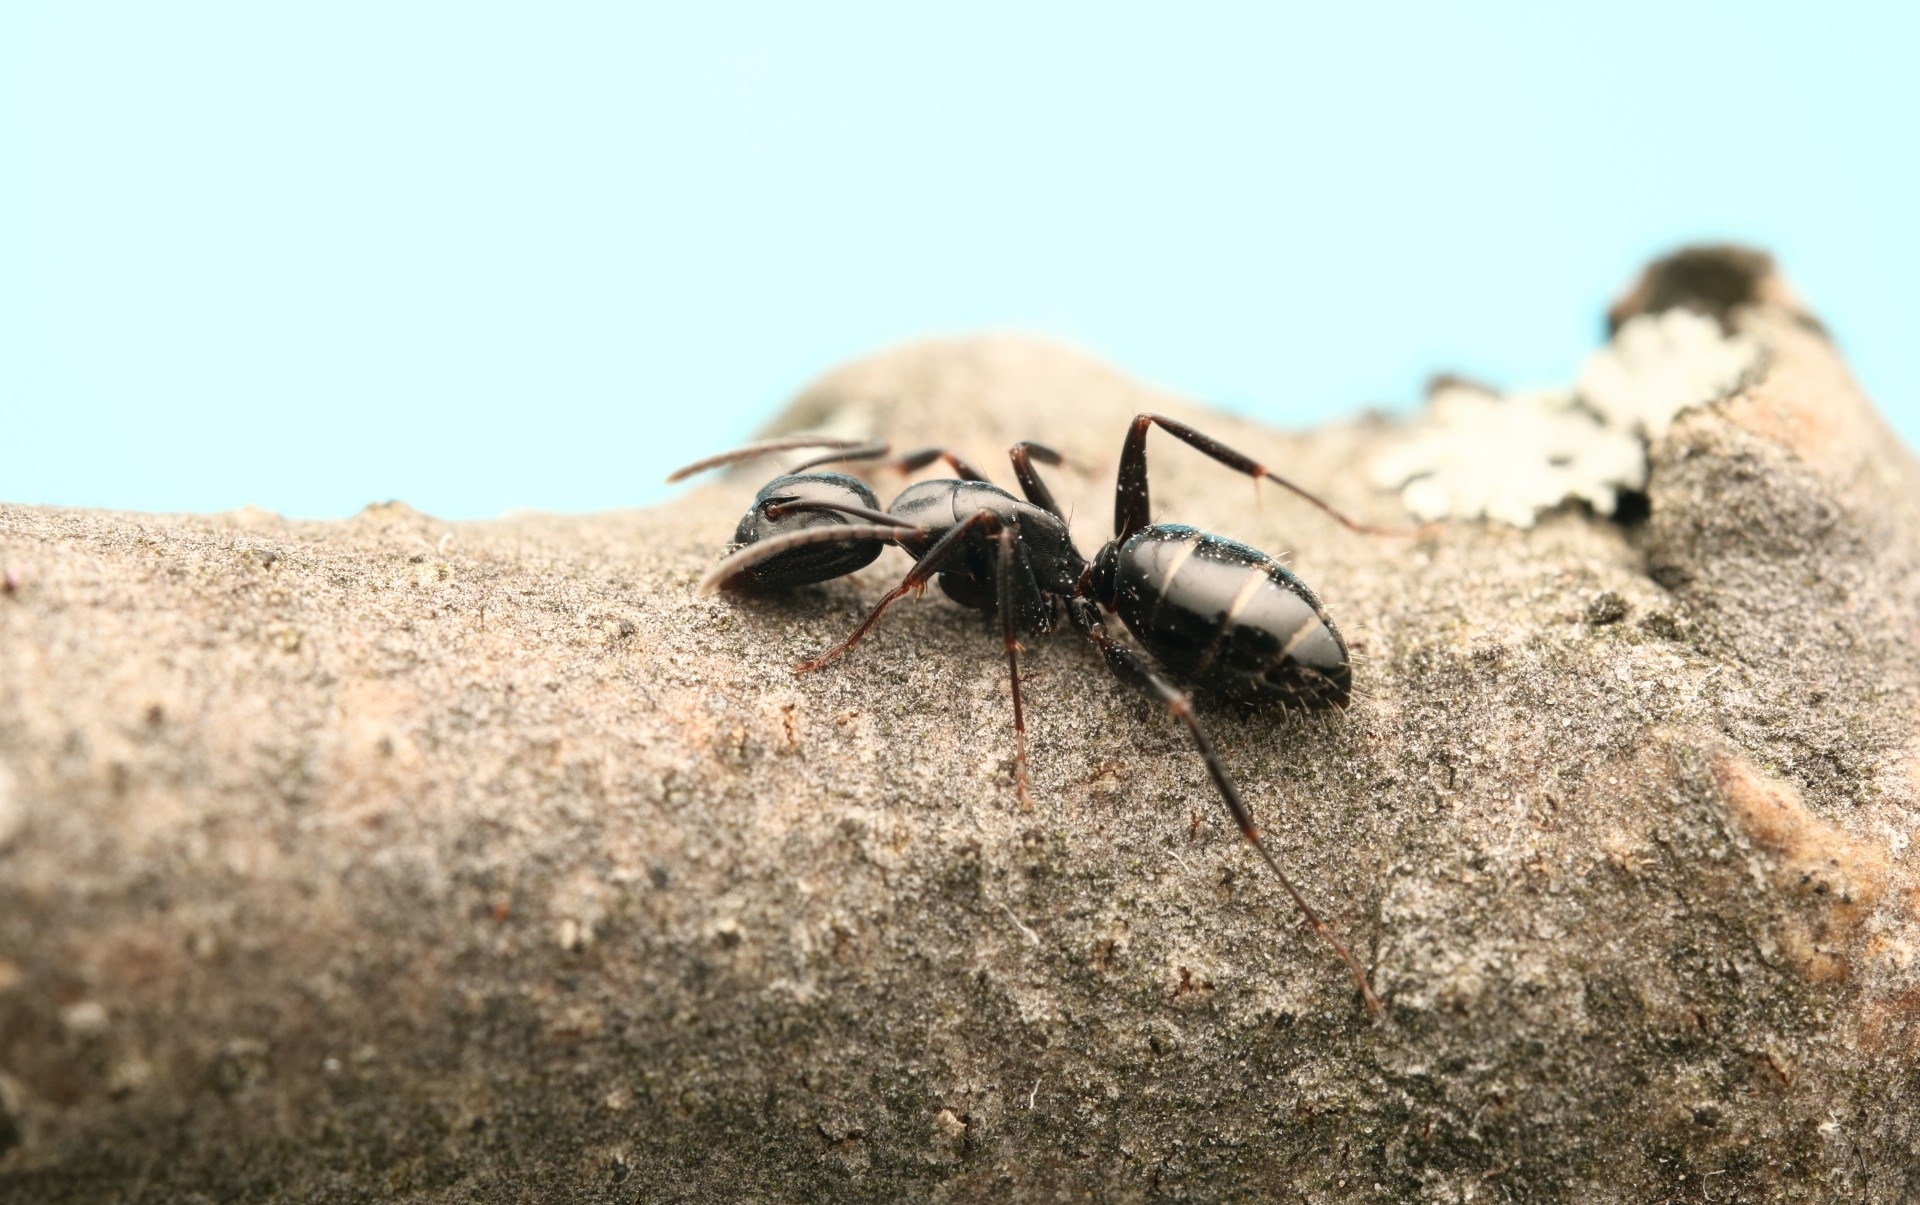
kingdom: Animalia
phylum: Arthropoda
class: Insecta
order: Hymenoptera
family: Formicidae
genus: Camponotus
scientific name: Camponotus nearcticus
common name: Smaller carpenter ant
